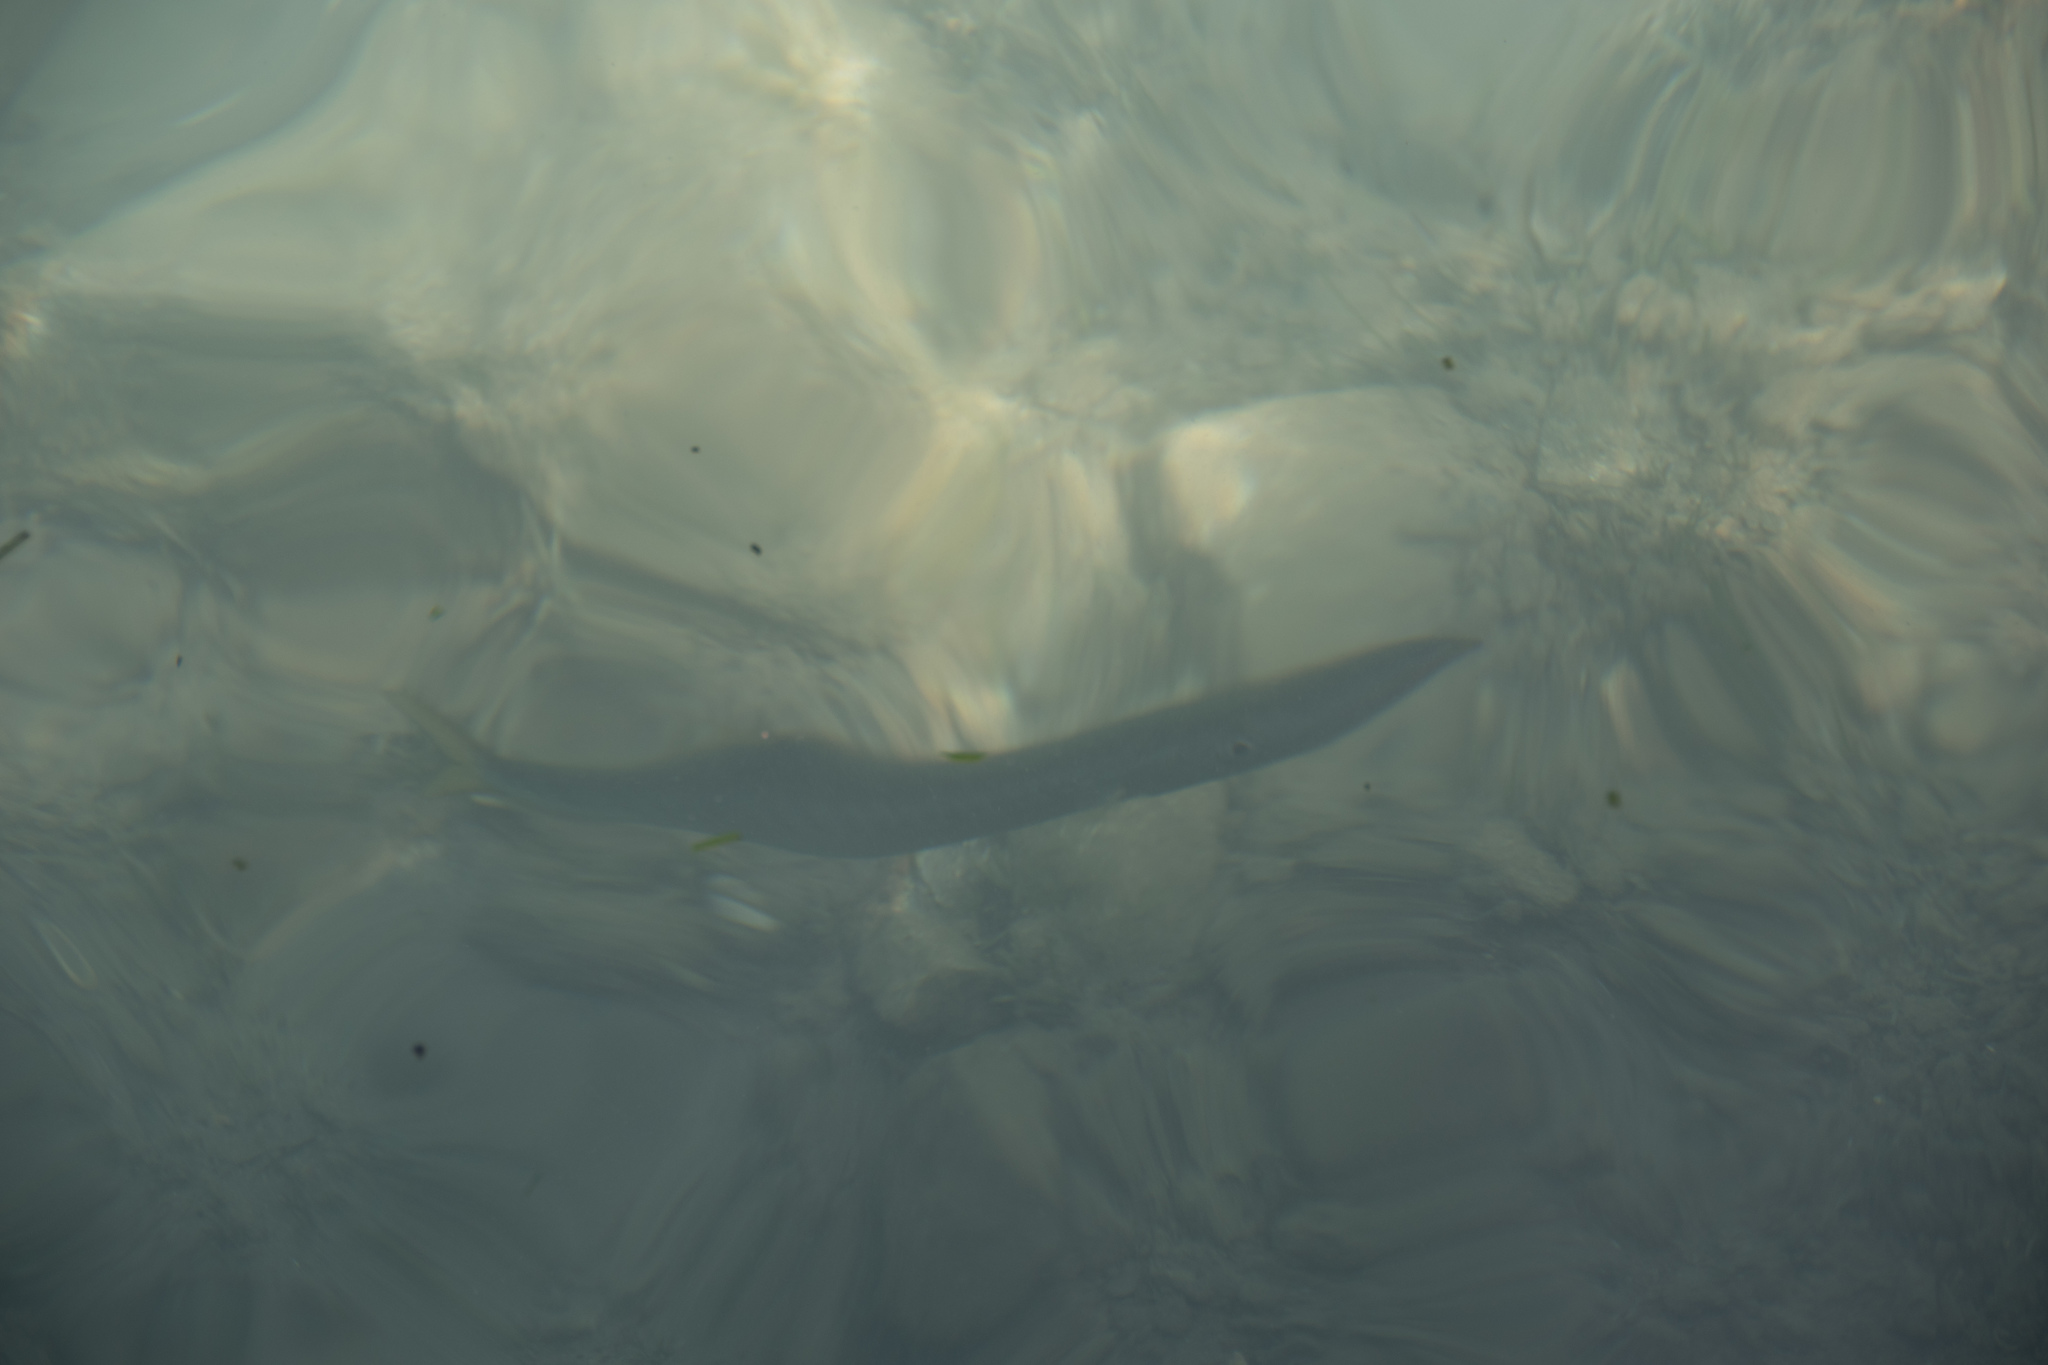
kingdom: Animalia
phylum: Chordata
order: Perciformes
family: Sphyraenidae
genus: Sphyraena
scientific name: Sphyraena
